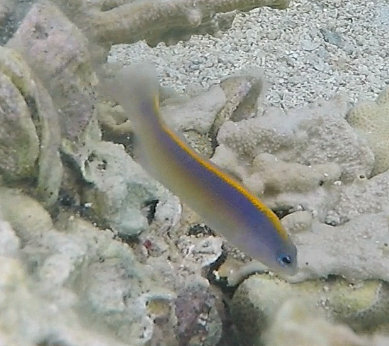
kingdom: Animalia
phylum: Chordata
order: Perciformes
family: Pseudochromidae
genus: Pseudochromis
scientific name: Pseudochromis flavivertex
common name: Sunrise dottyback
